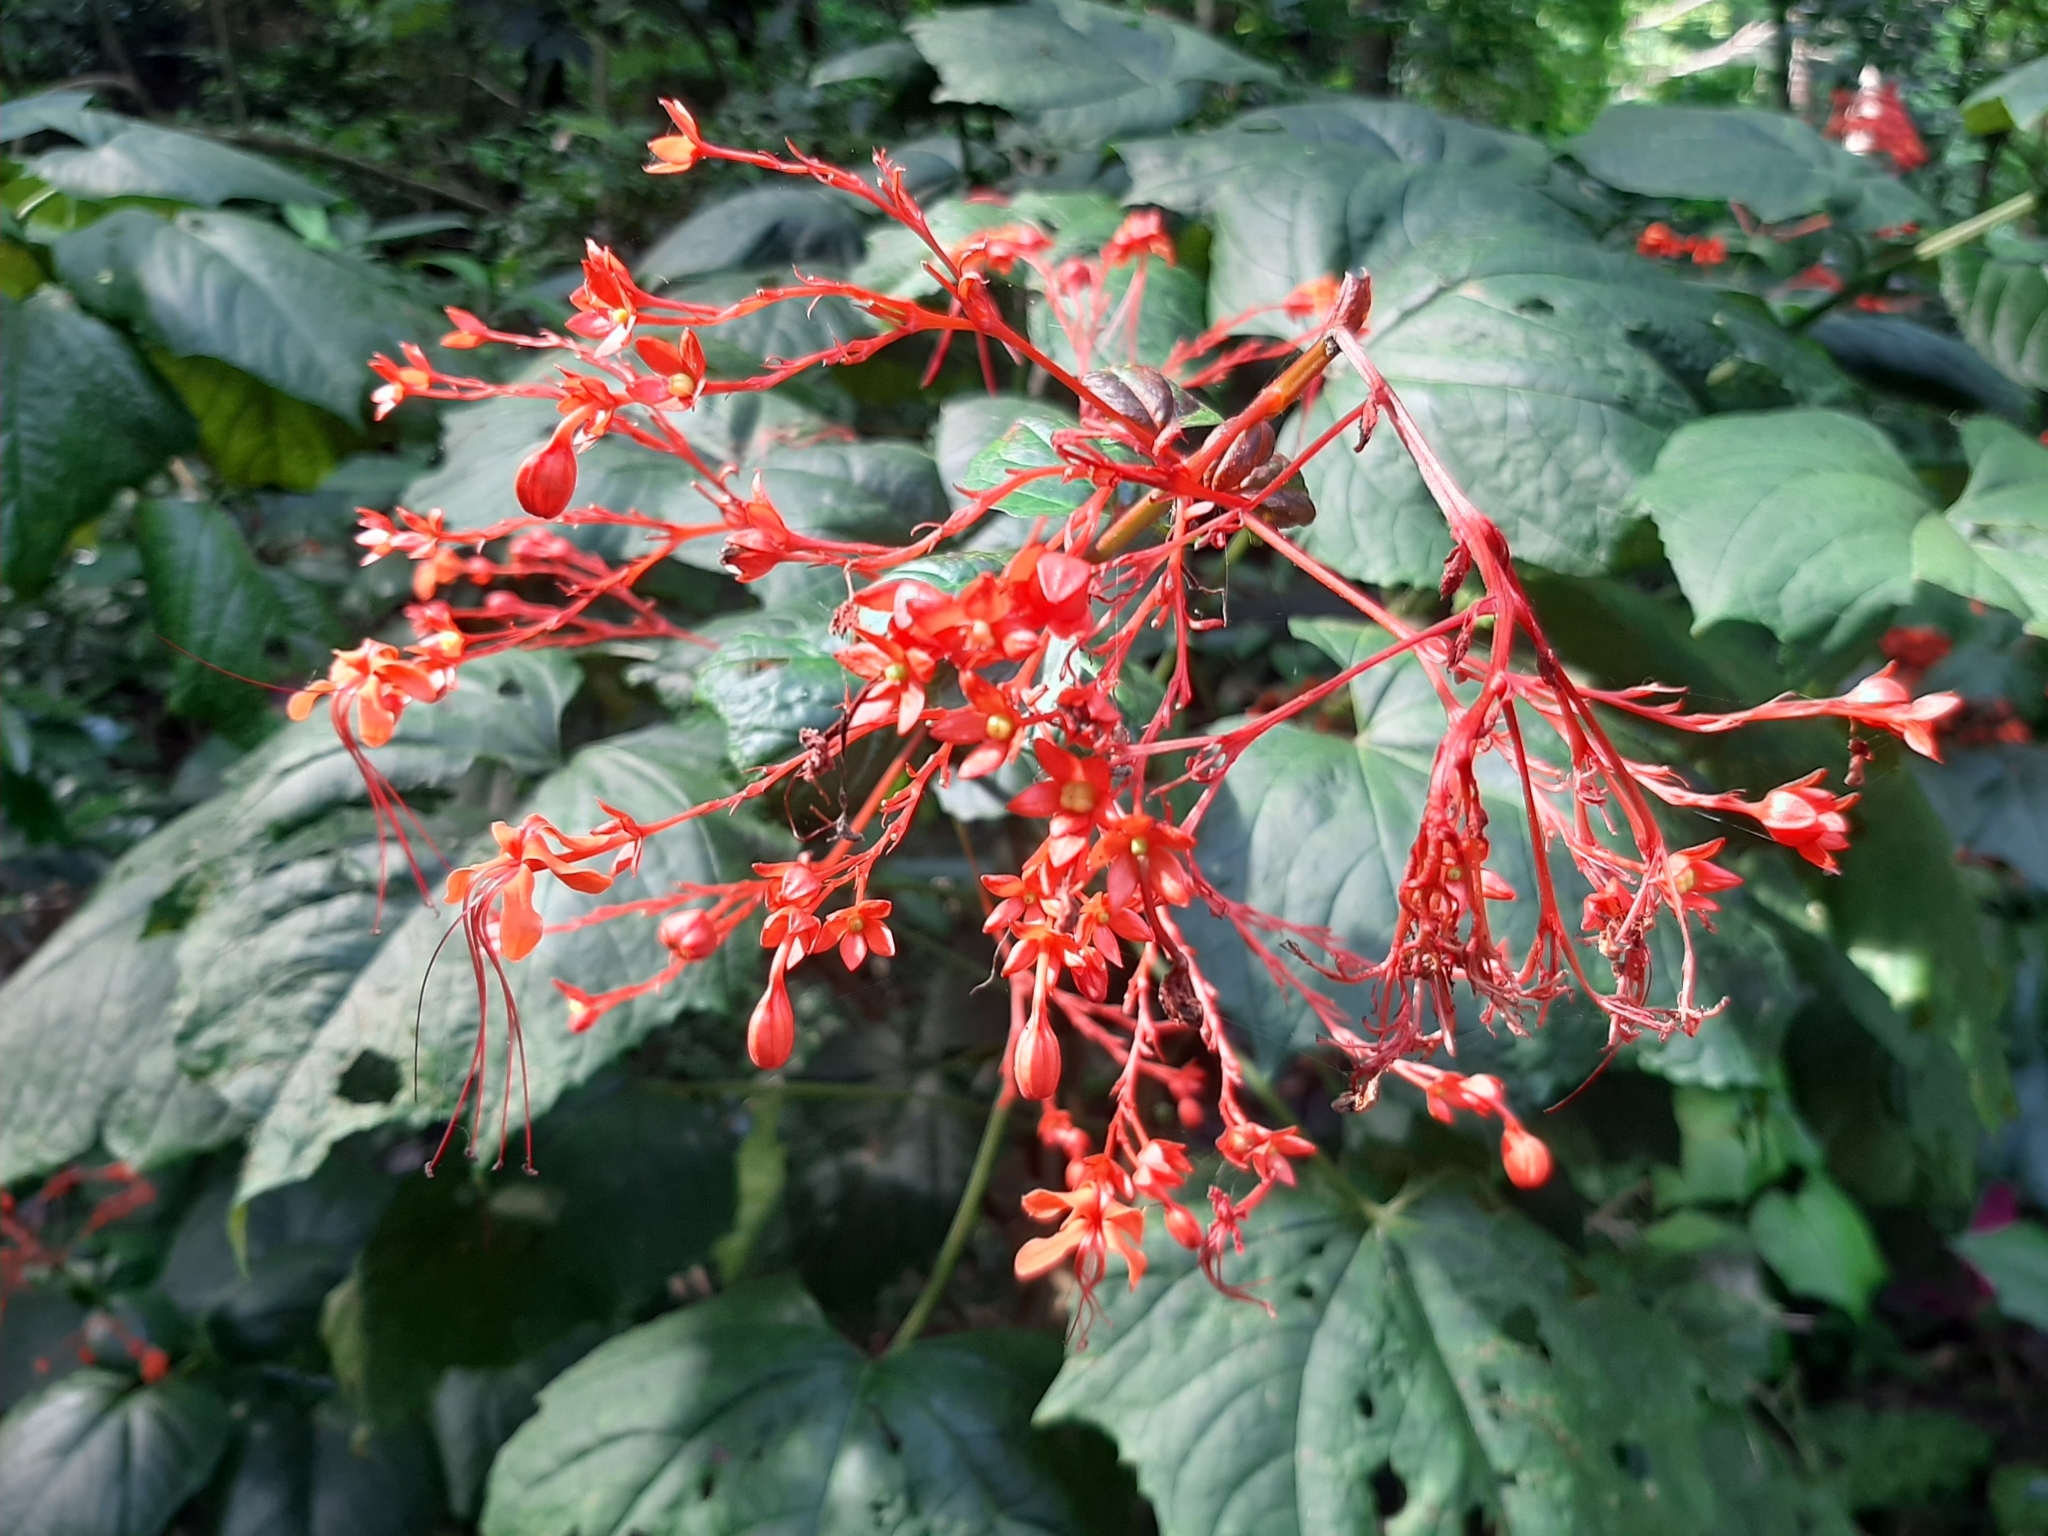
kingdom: Plantae
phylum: Tracheophyta
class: Magnoliopsida
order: Lamiales
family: Lamiaceae
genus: Clerodendrum
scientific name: Clerodendrum japonicum
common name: Japanese glorybower
